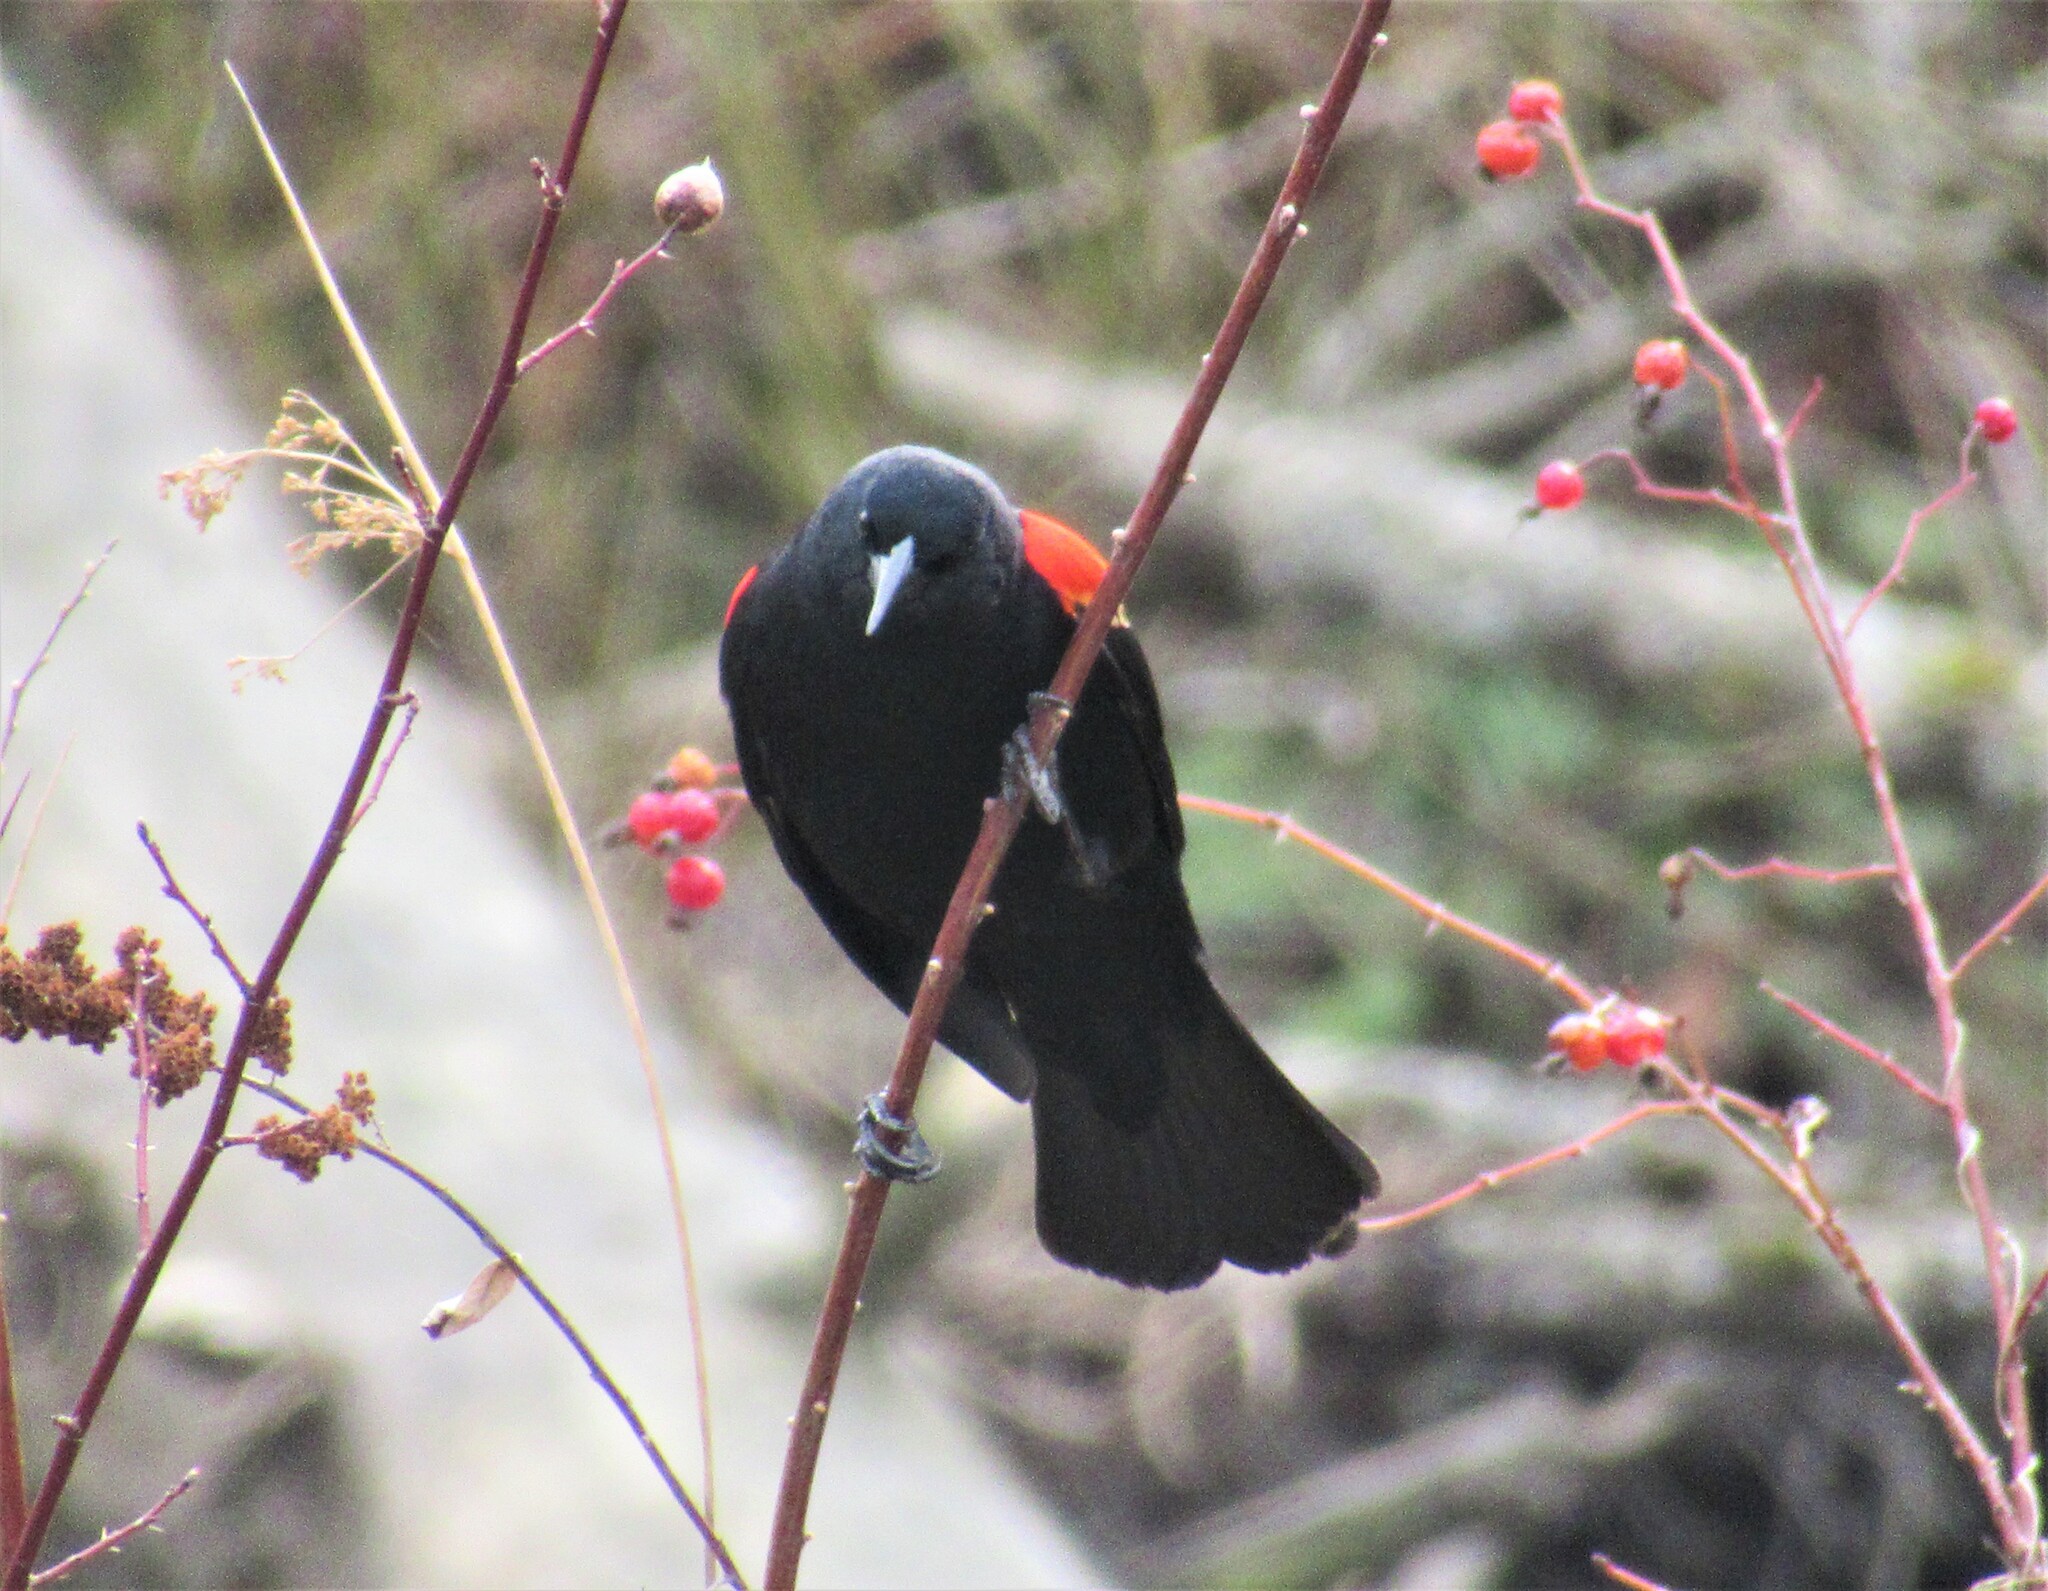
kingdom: Animalia
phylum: Chordata
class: Aves
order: Passeriformes
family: Icteridae
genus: Agelaius
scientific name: Agelaius phoeniceus
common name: Red-winged blackbird
